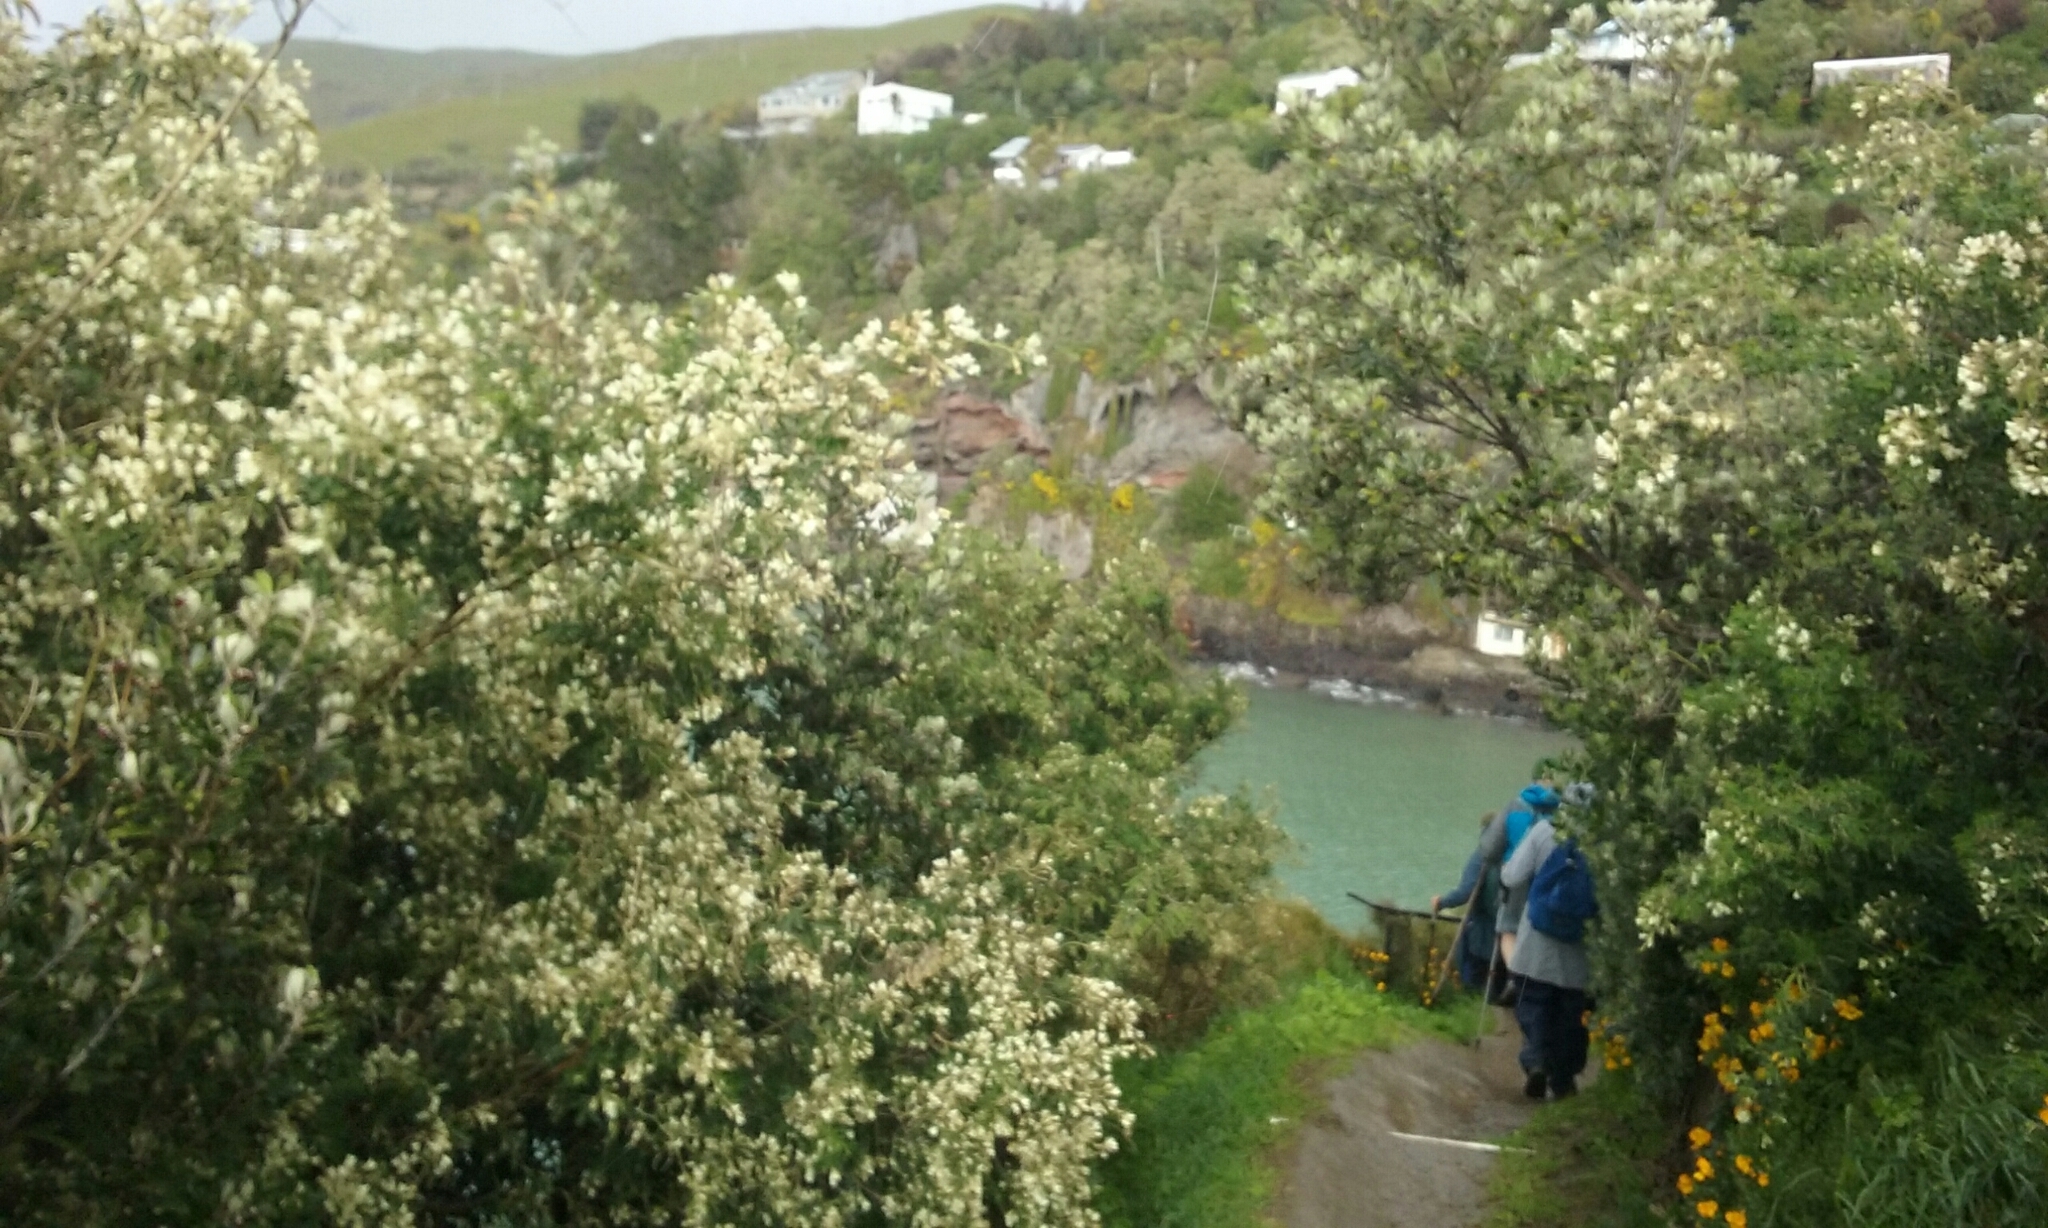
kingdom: Plantae
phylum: Tracheophyta
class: Magnoliopsida
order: Fabales
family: Fabaceae
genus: Chamaecytisus
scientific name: Chamaecytisus prolifer
